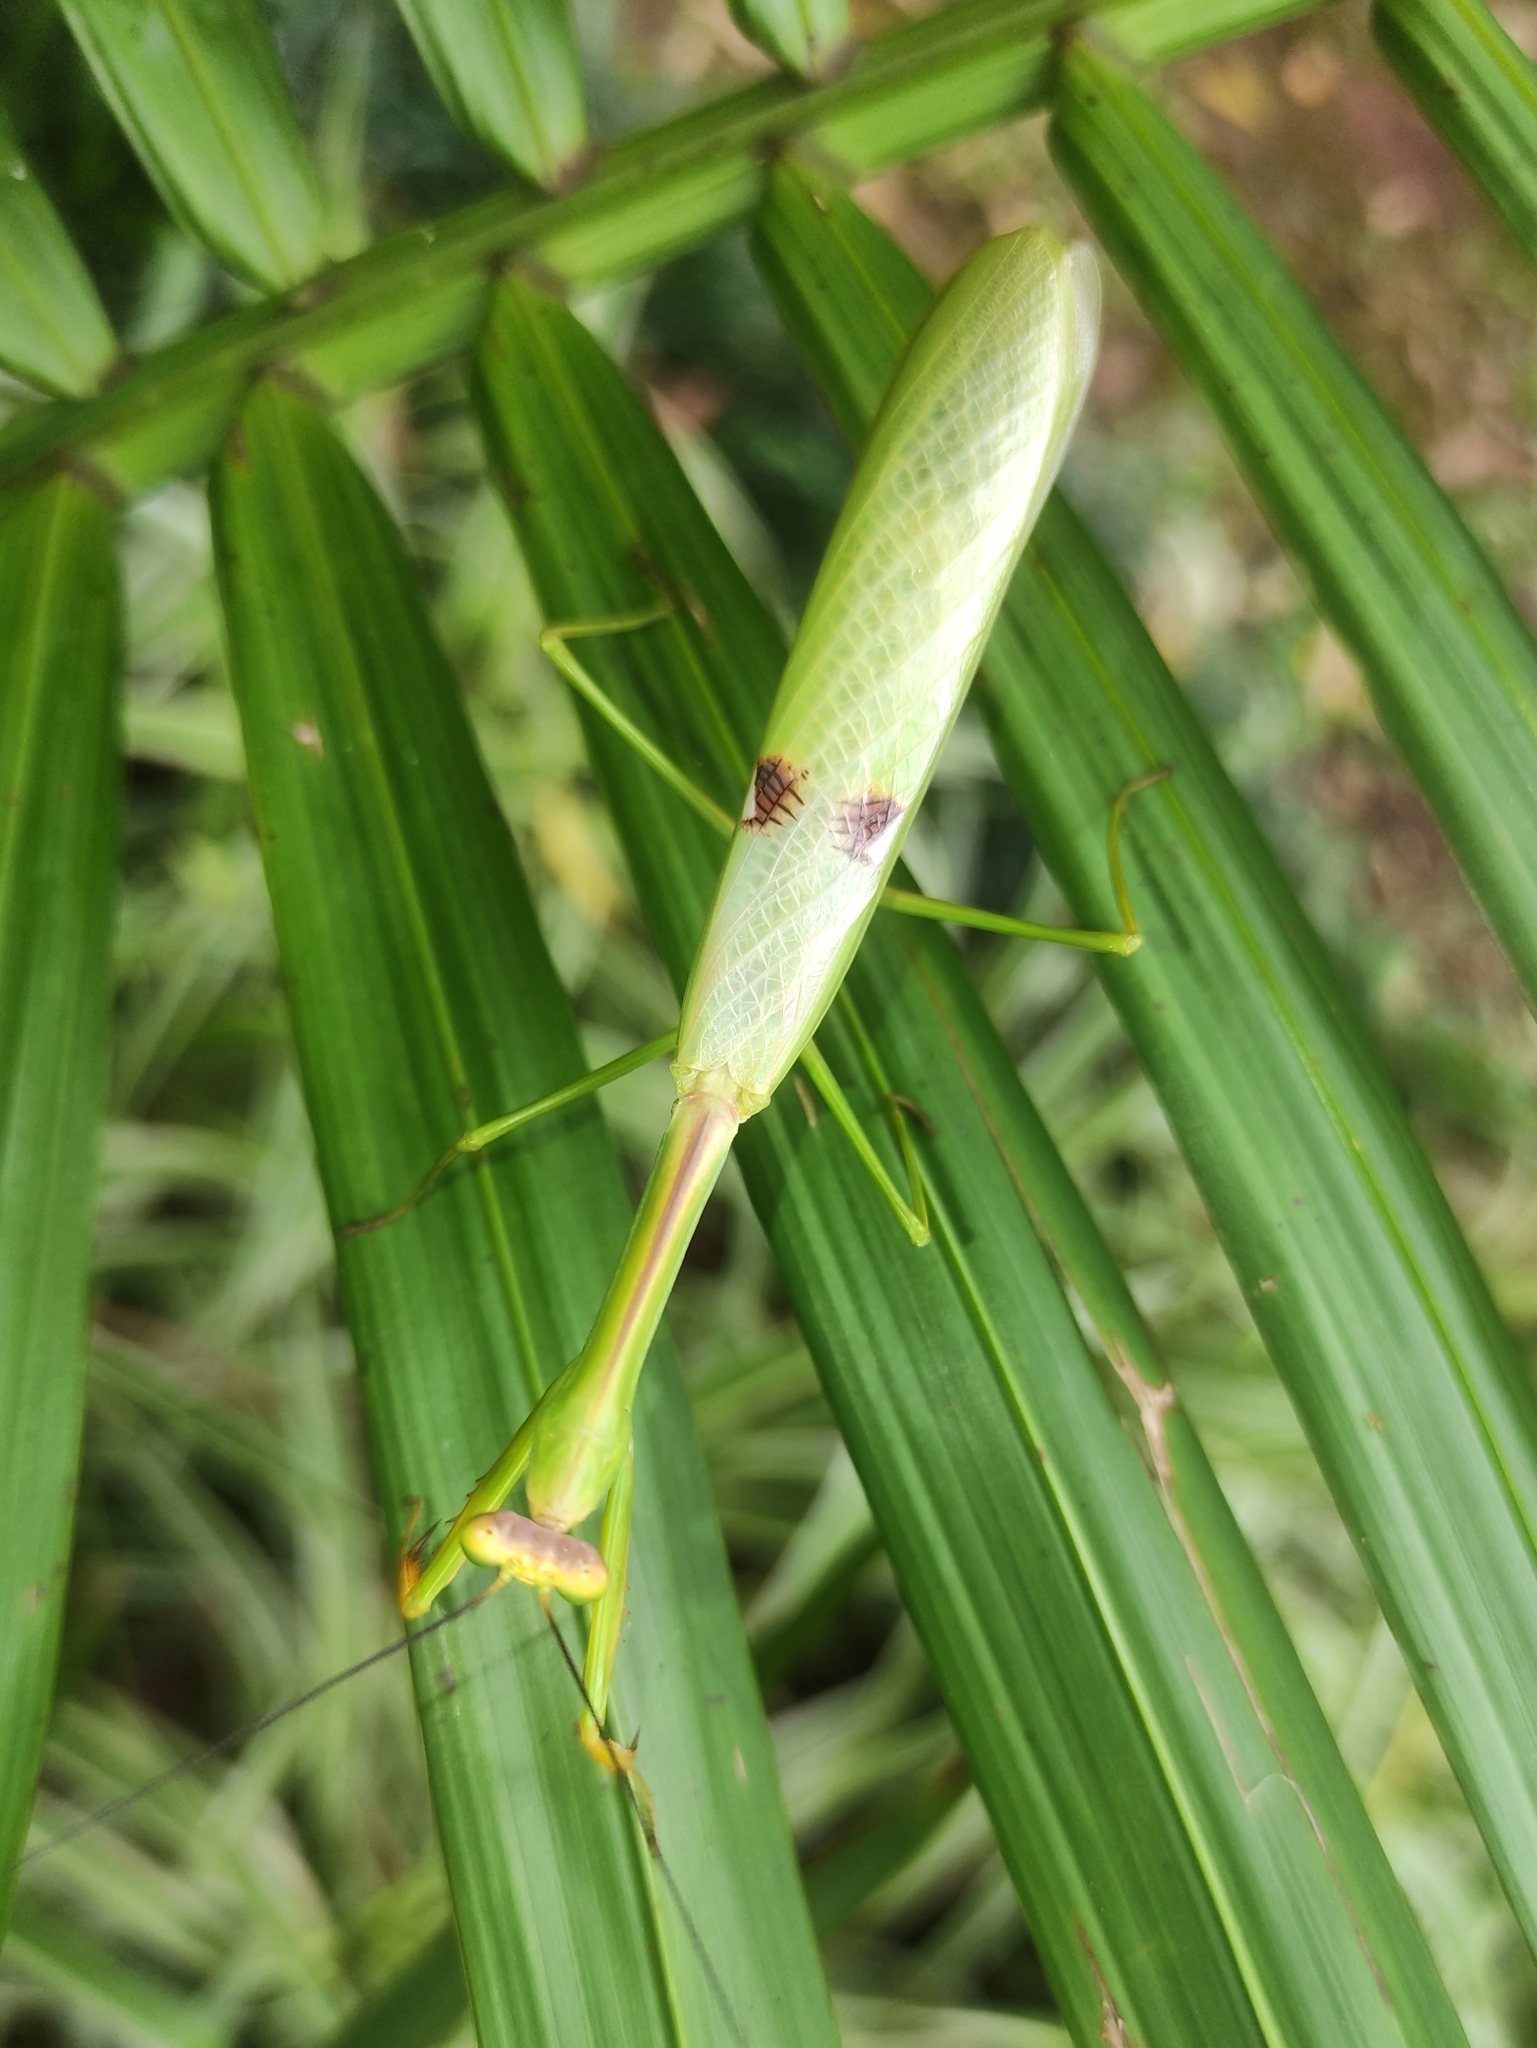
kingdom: Animalia
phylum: Arthropoda
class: Insecta
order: Mantodea
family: Mantidae
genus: Stagmatoptera
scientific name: Stagmatoptera praecaria
